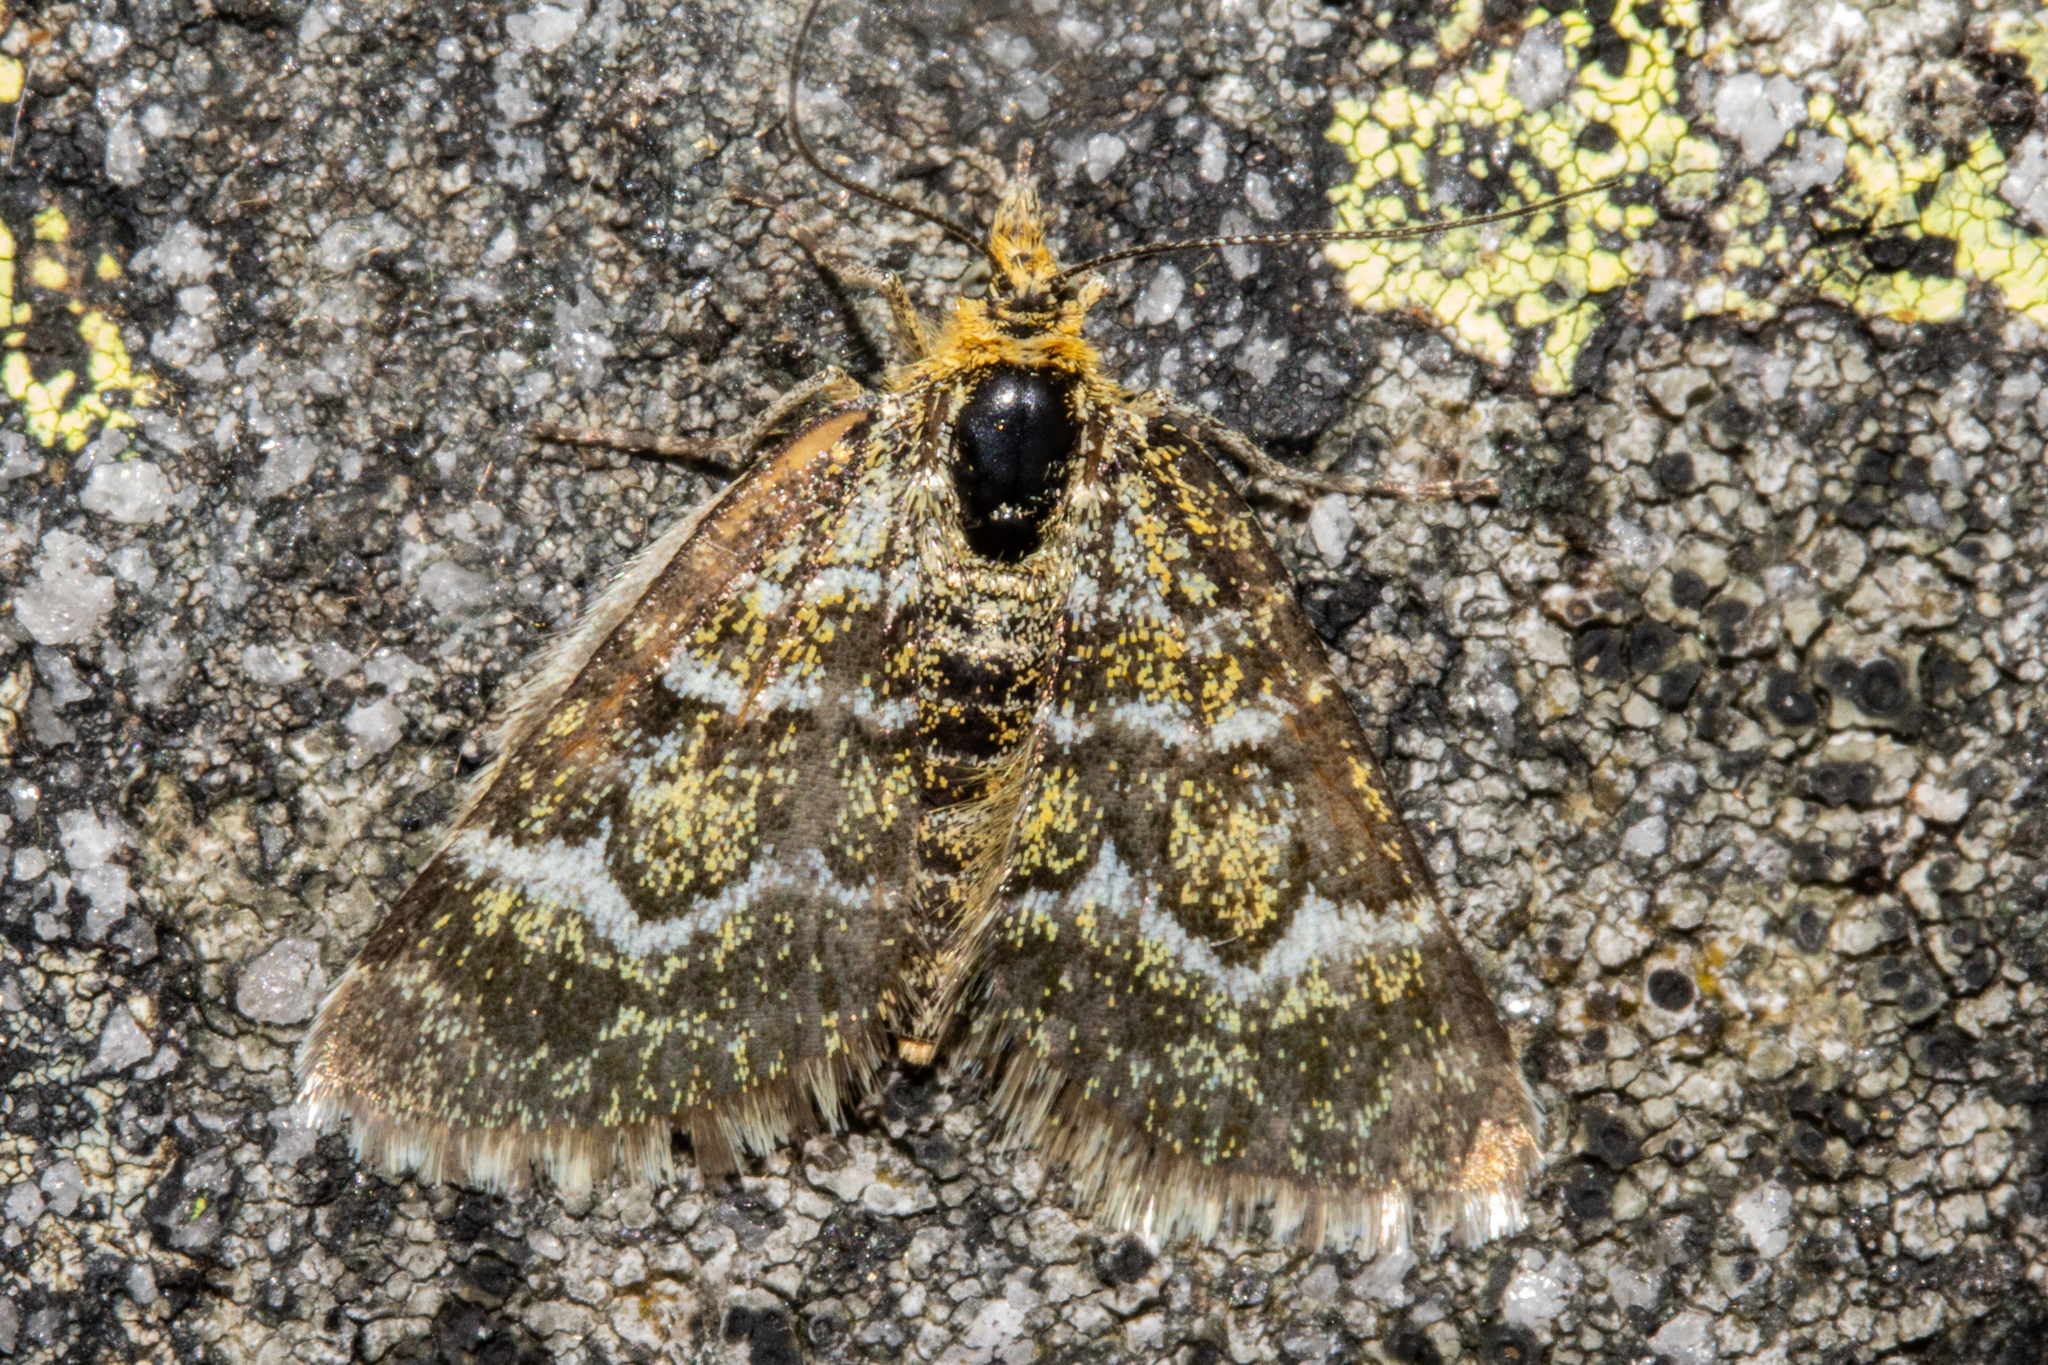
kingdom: Animalia
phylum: Arthropoda
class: Insecta
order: Lepidoptera
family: Geometridae
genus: Notoreas
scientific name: Notoreas paradelpha
